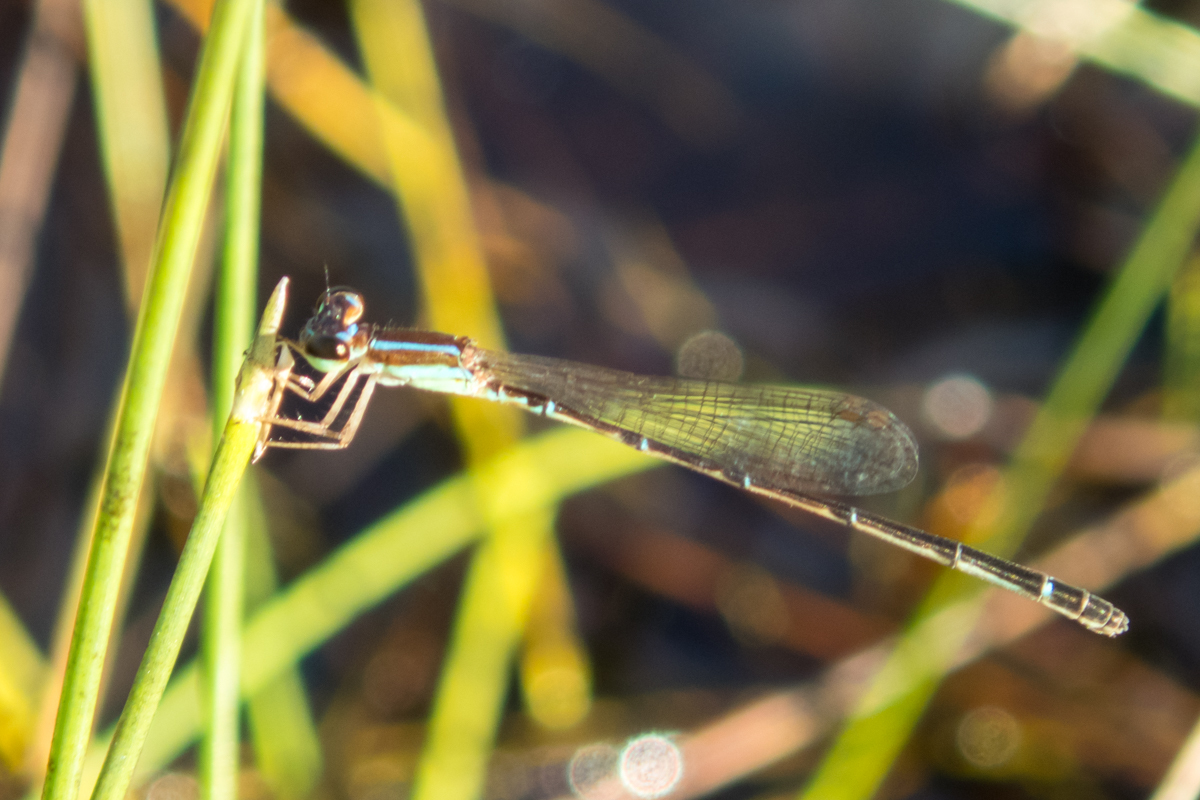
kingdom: Animalia
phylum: Arthropoda
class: Insecta
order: Odonata
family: Coenagrionidae
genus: Mortonagrion
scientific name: Mortonagrion falcatum
